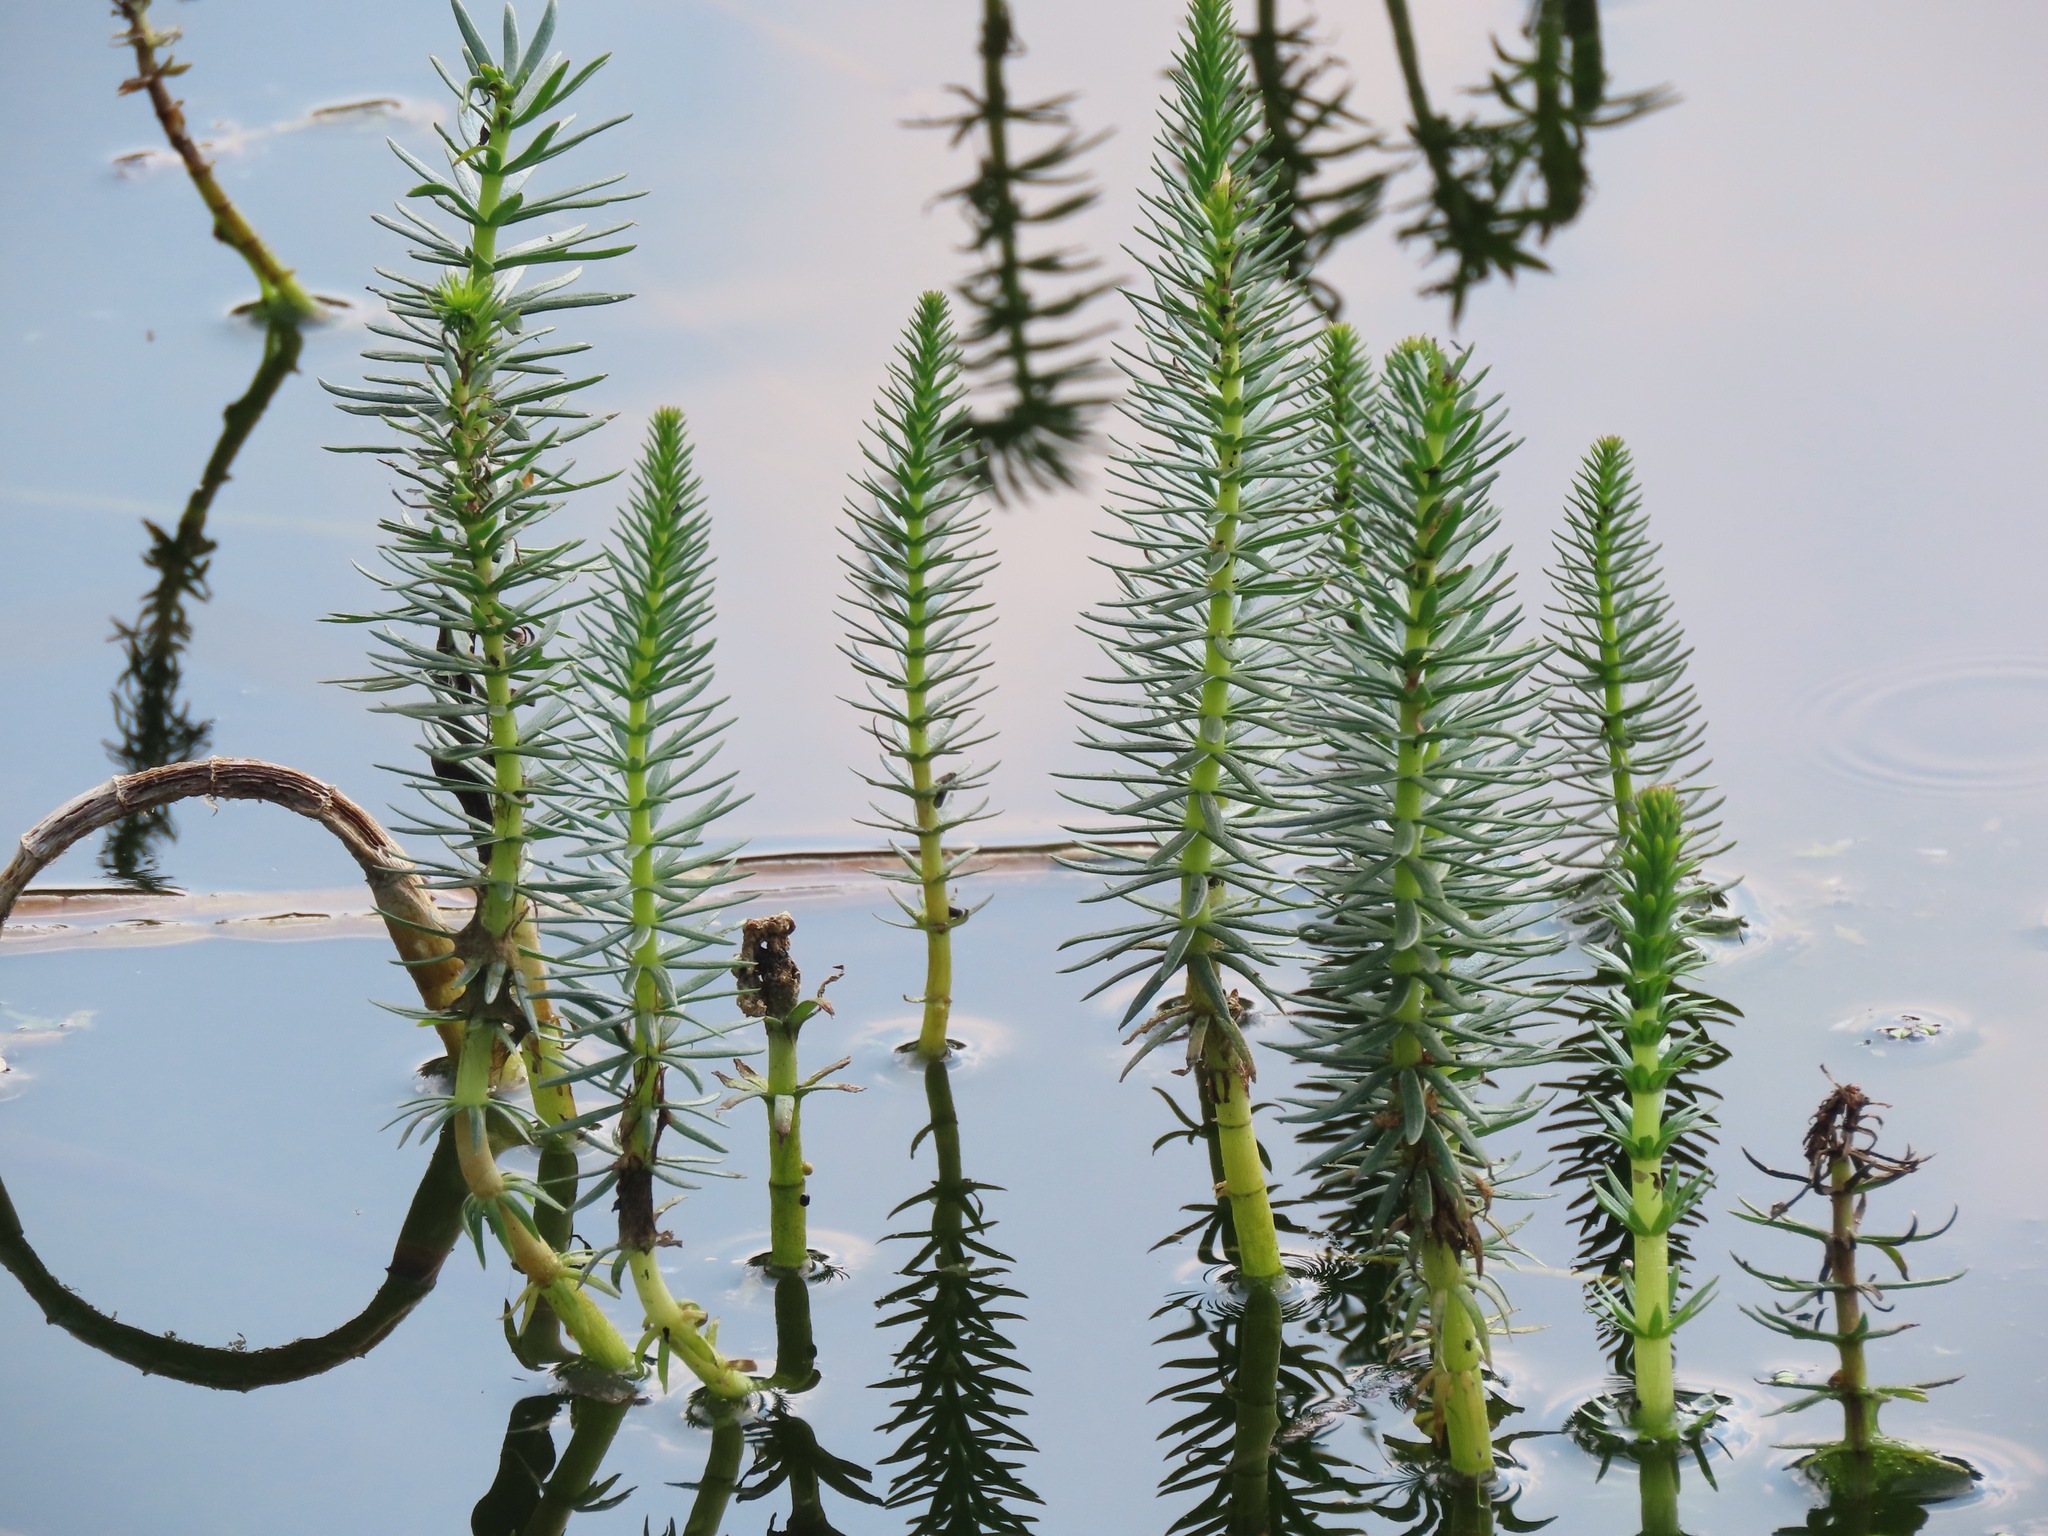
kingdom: Plantae
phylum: Tracheophyta
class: Magnoliopsida
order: Lamiales
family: Plantaginaceae
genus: Hippuris
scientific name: Hippuris vulgaris
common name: Mare's-tail
